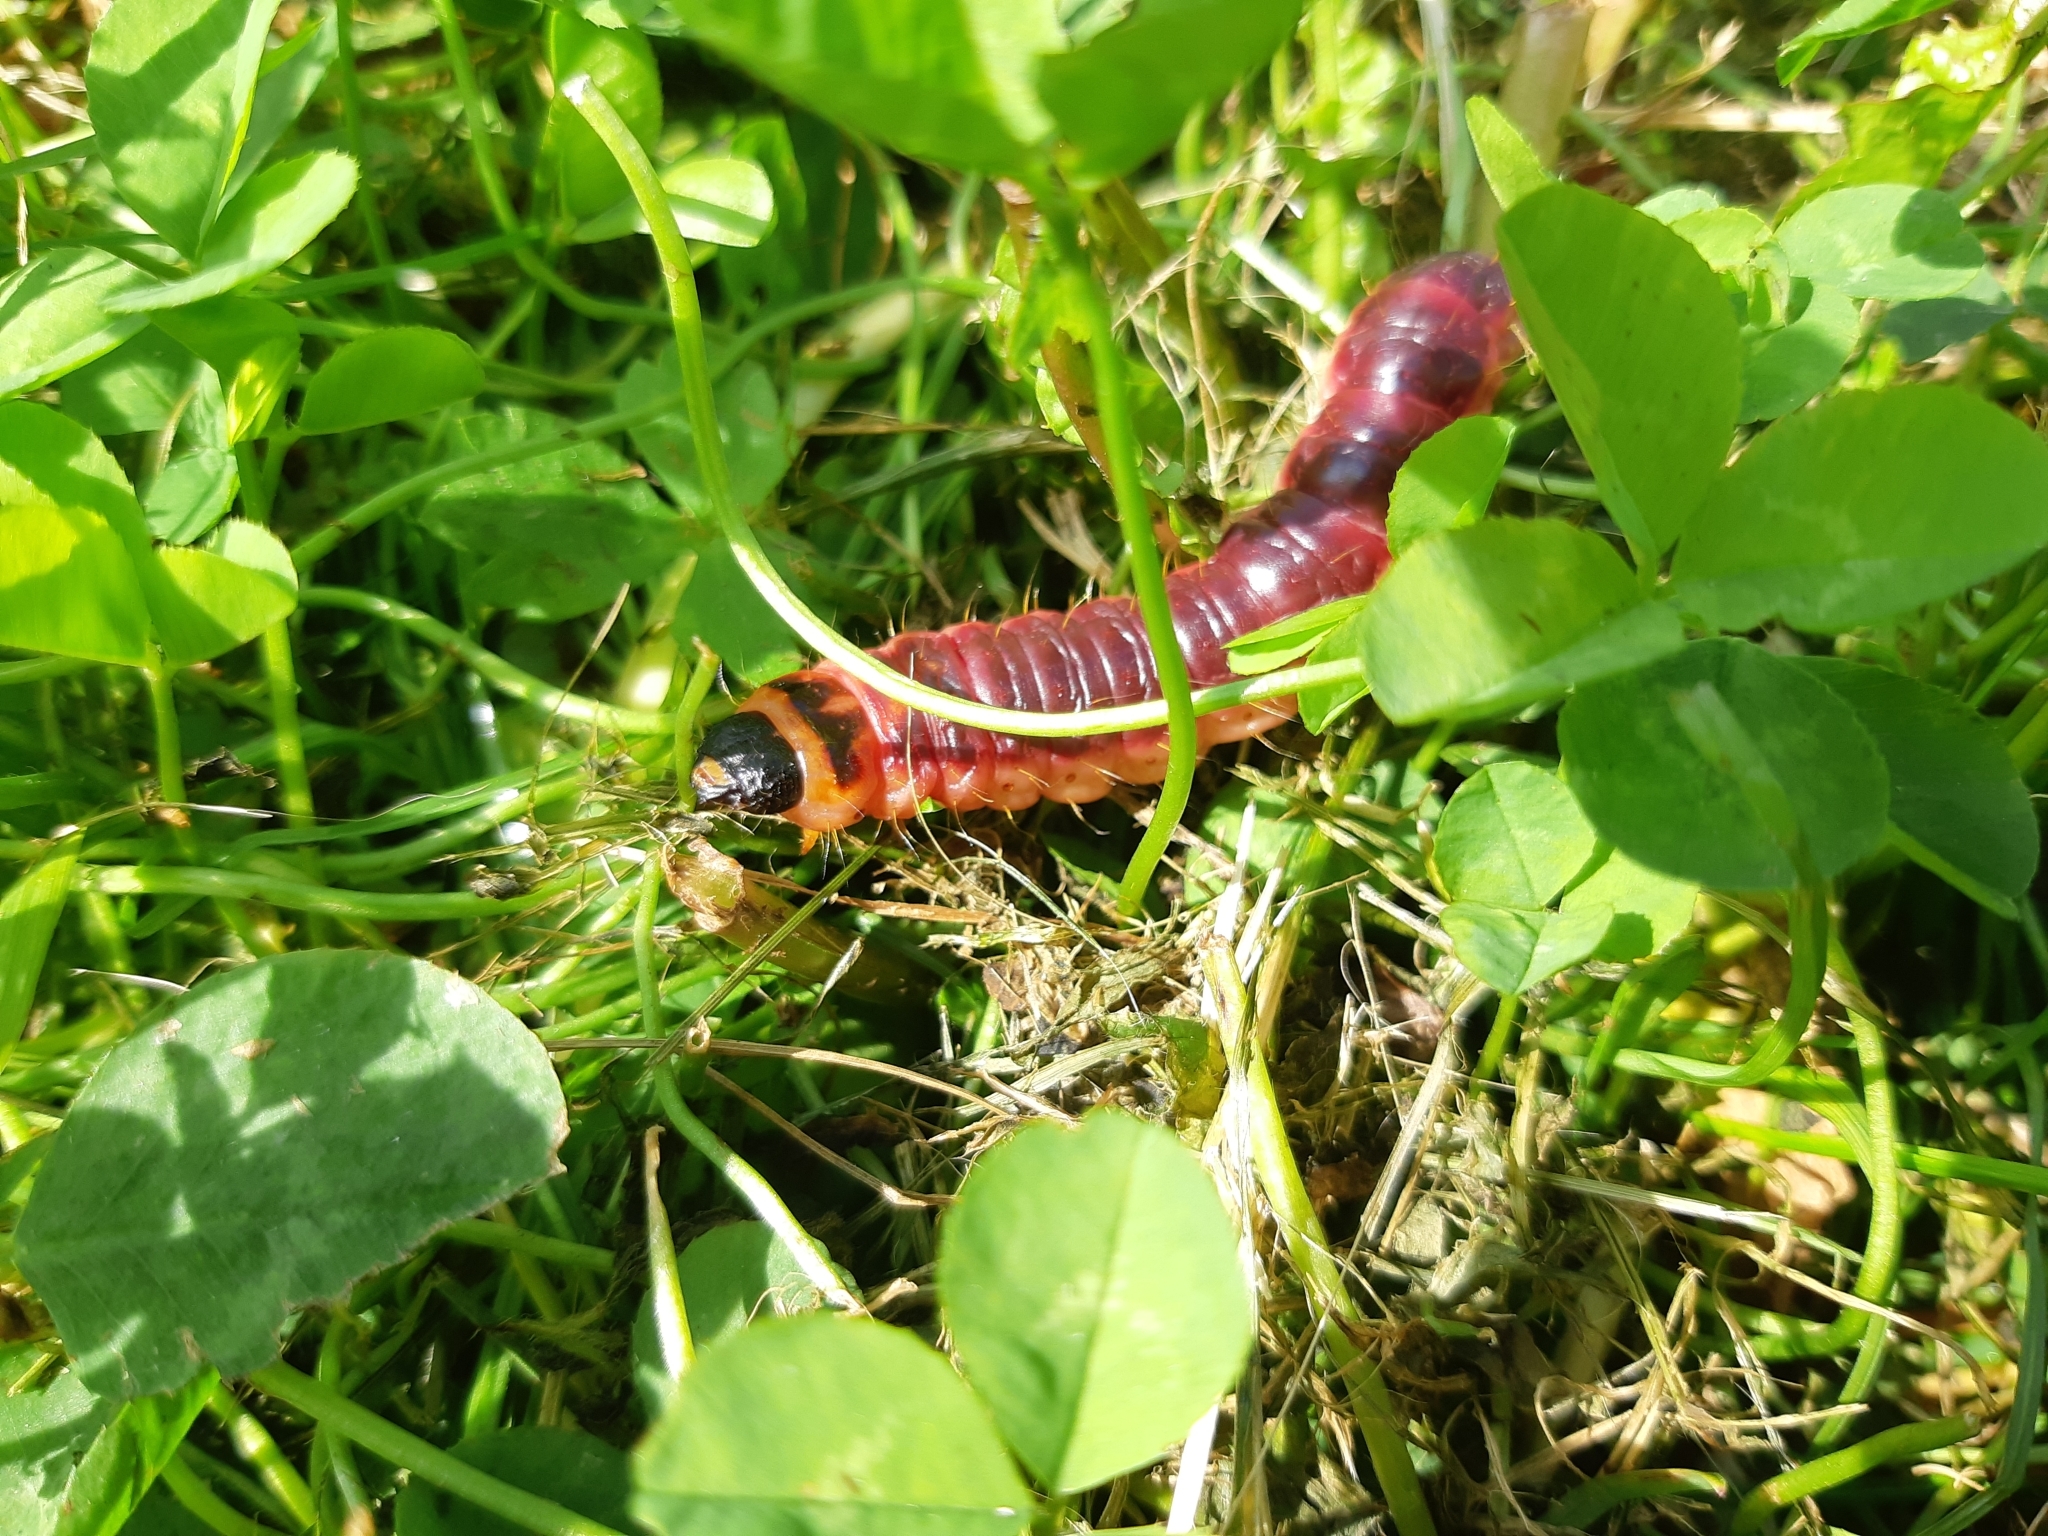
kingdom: Animalia
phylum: Arthropoda
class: Insecta
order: Lepidoptera
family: Cossidae
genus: Cossus
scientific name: Cossus cossus
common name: Goat moth
